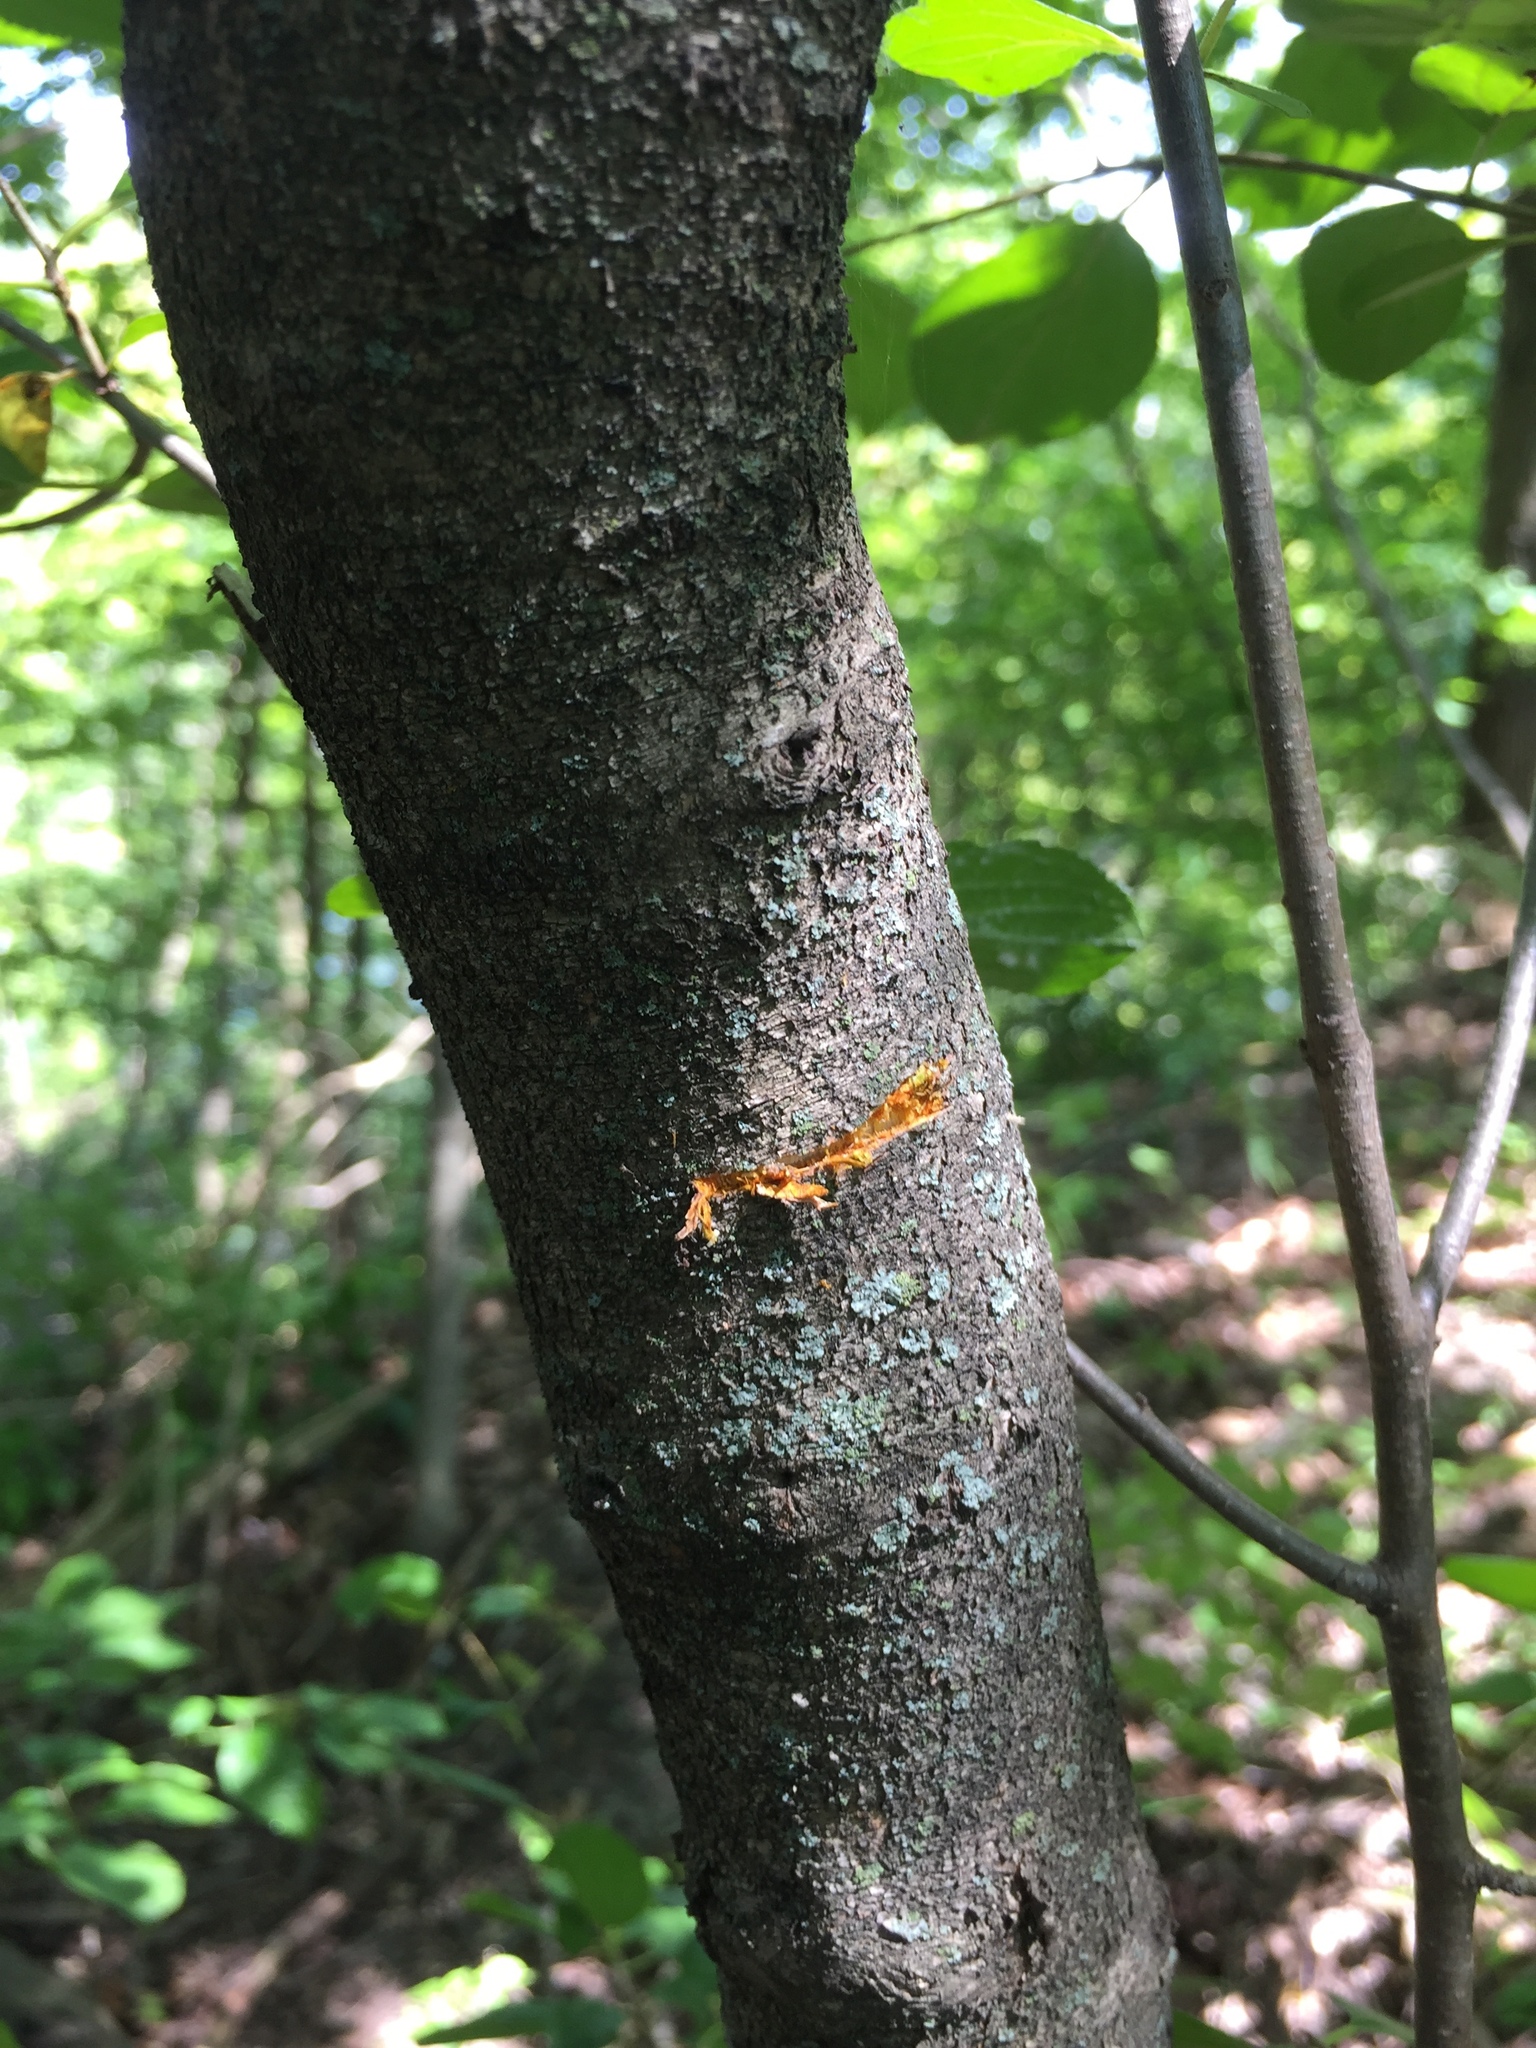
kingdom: Plantae
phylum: Tracheophyta
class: Magnoliopsida
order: Rosales
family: Rhamnaceae
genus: Rhamnus
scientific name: Rhamnus cathartica
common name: Common buckthorn
